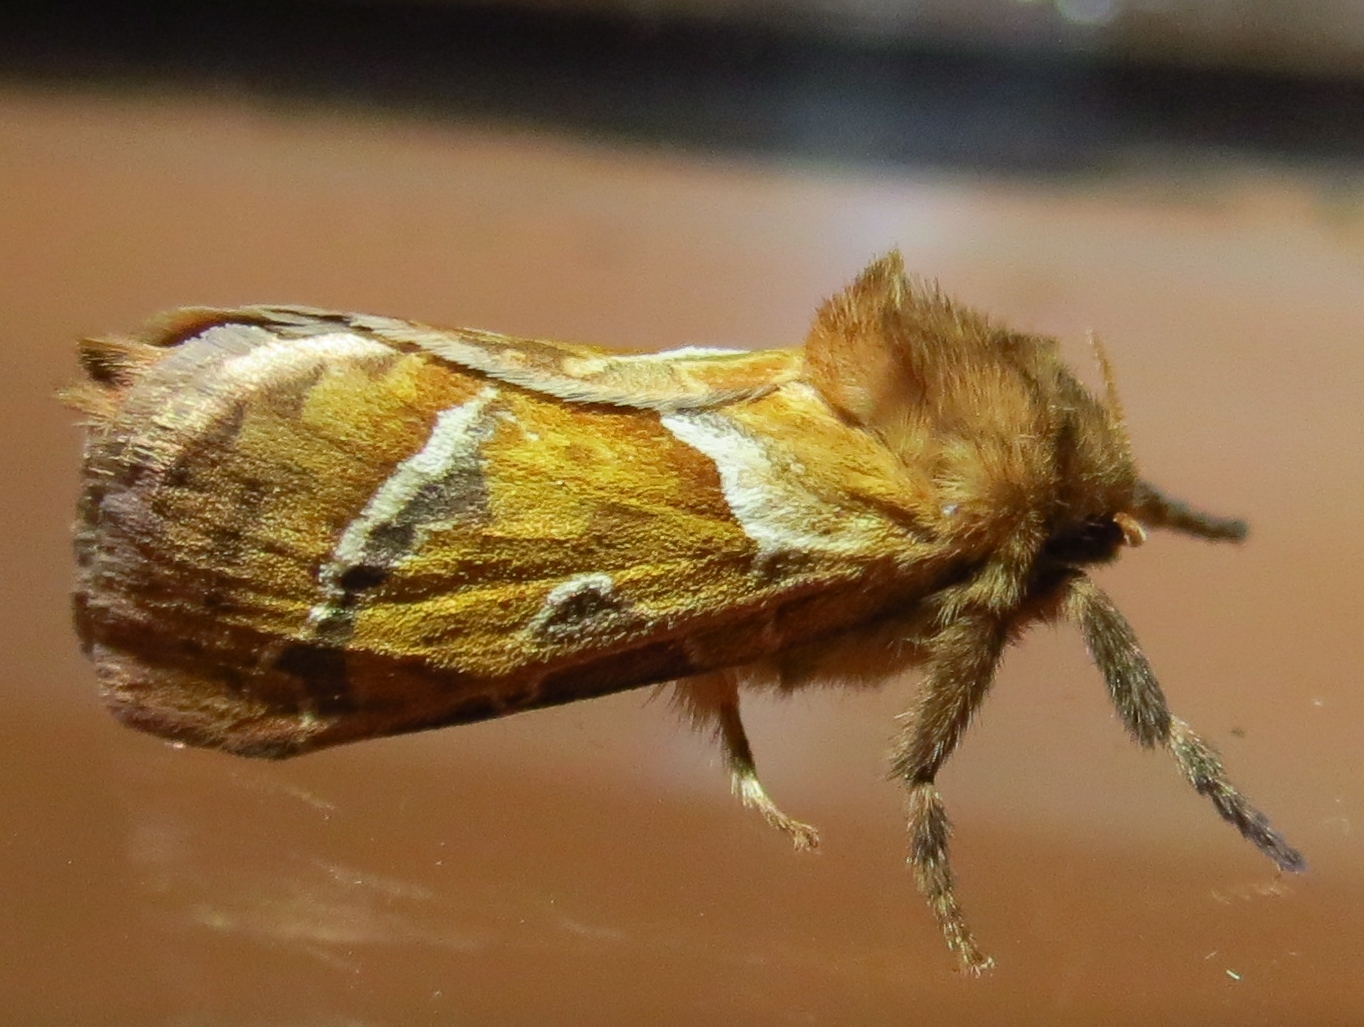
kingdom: Animalia
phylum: Arthropoda
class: Insecta
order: Lepidoptera
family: Hepialidae
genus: Triodia
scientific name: Triodia sylvina
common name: Orange swift
